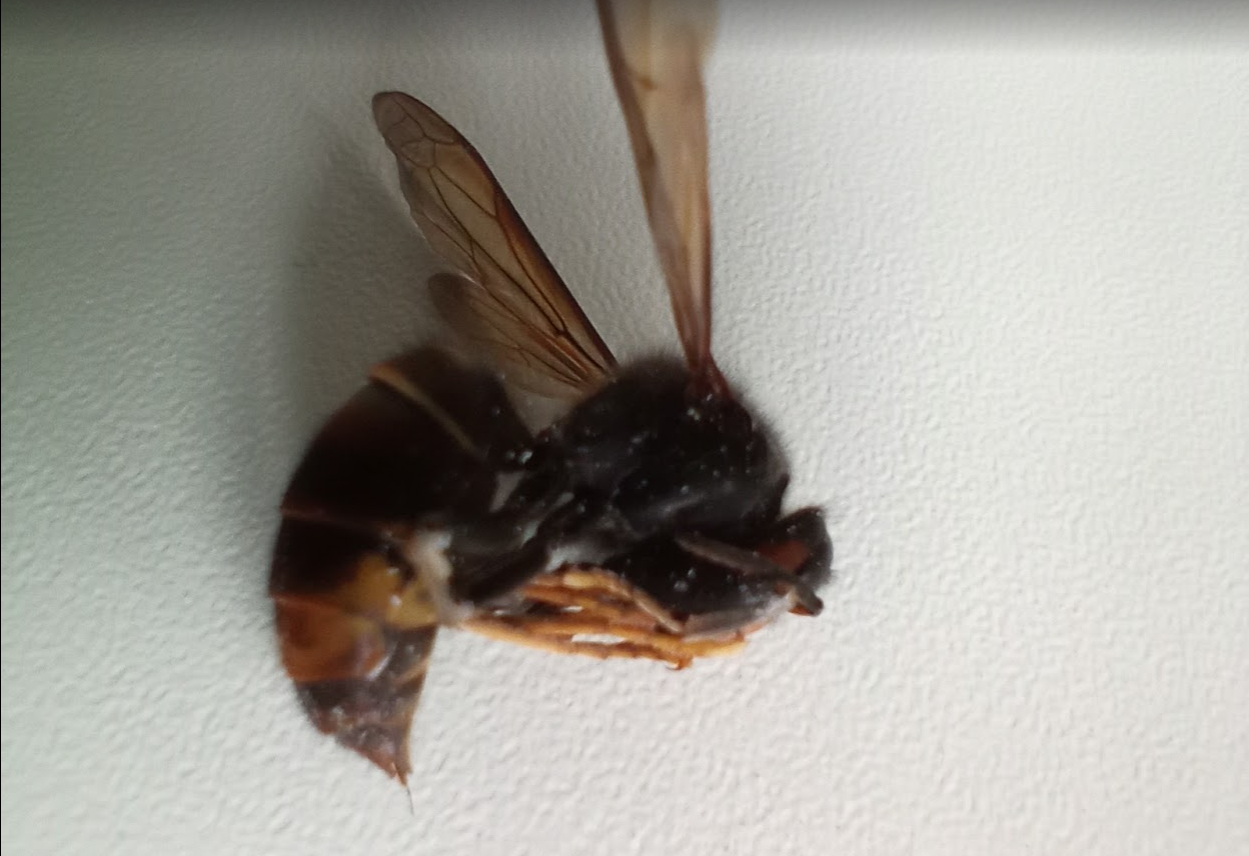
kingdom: Animalia
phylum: Arthropoda
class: Insecta
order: Hymenoptera
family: Vespidae
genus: Vespa
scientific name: Vespa velutina
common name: Asian hornet
